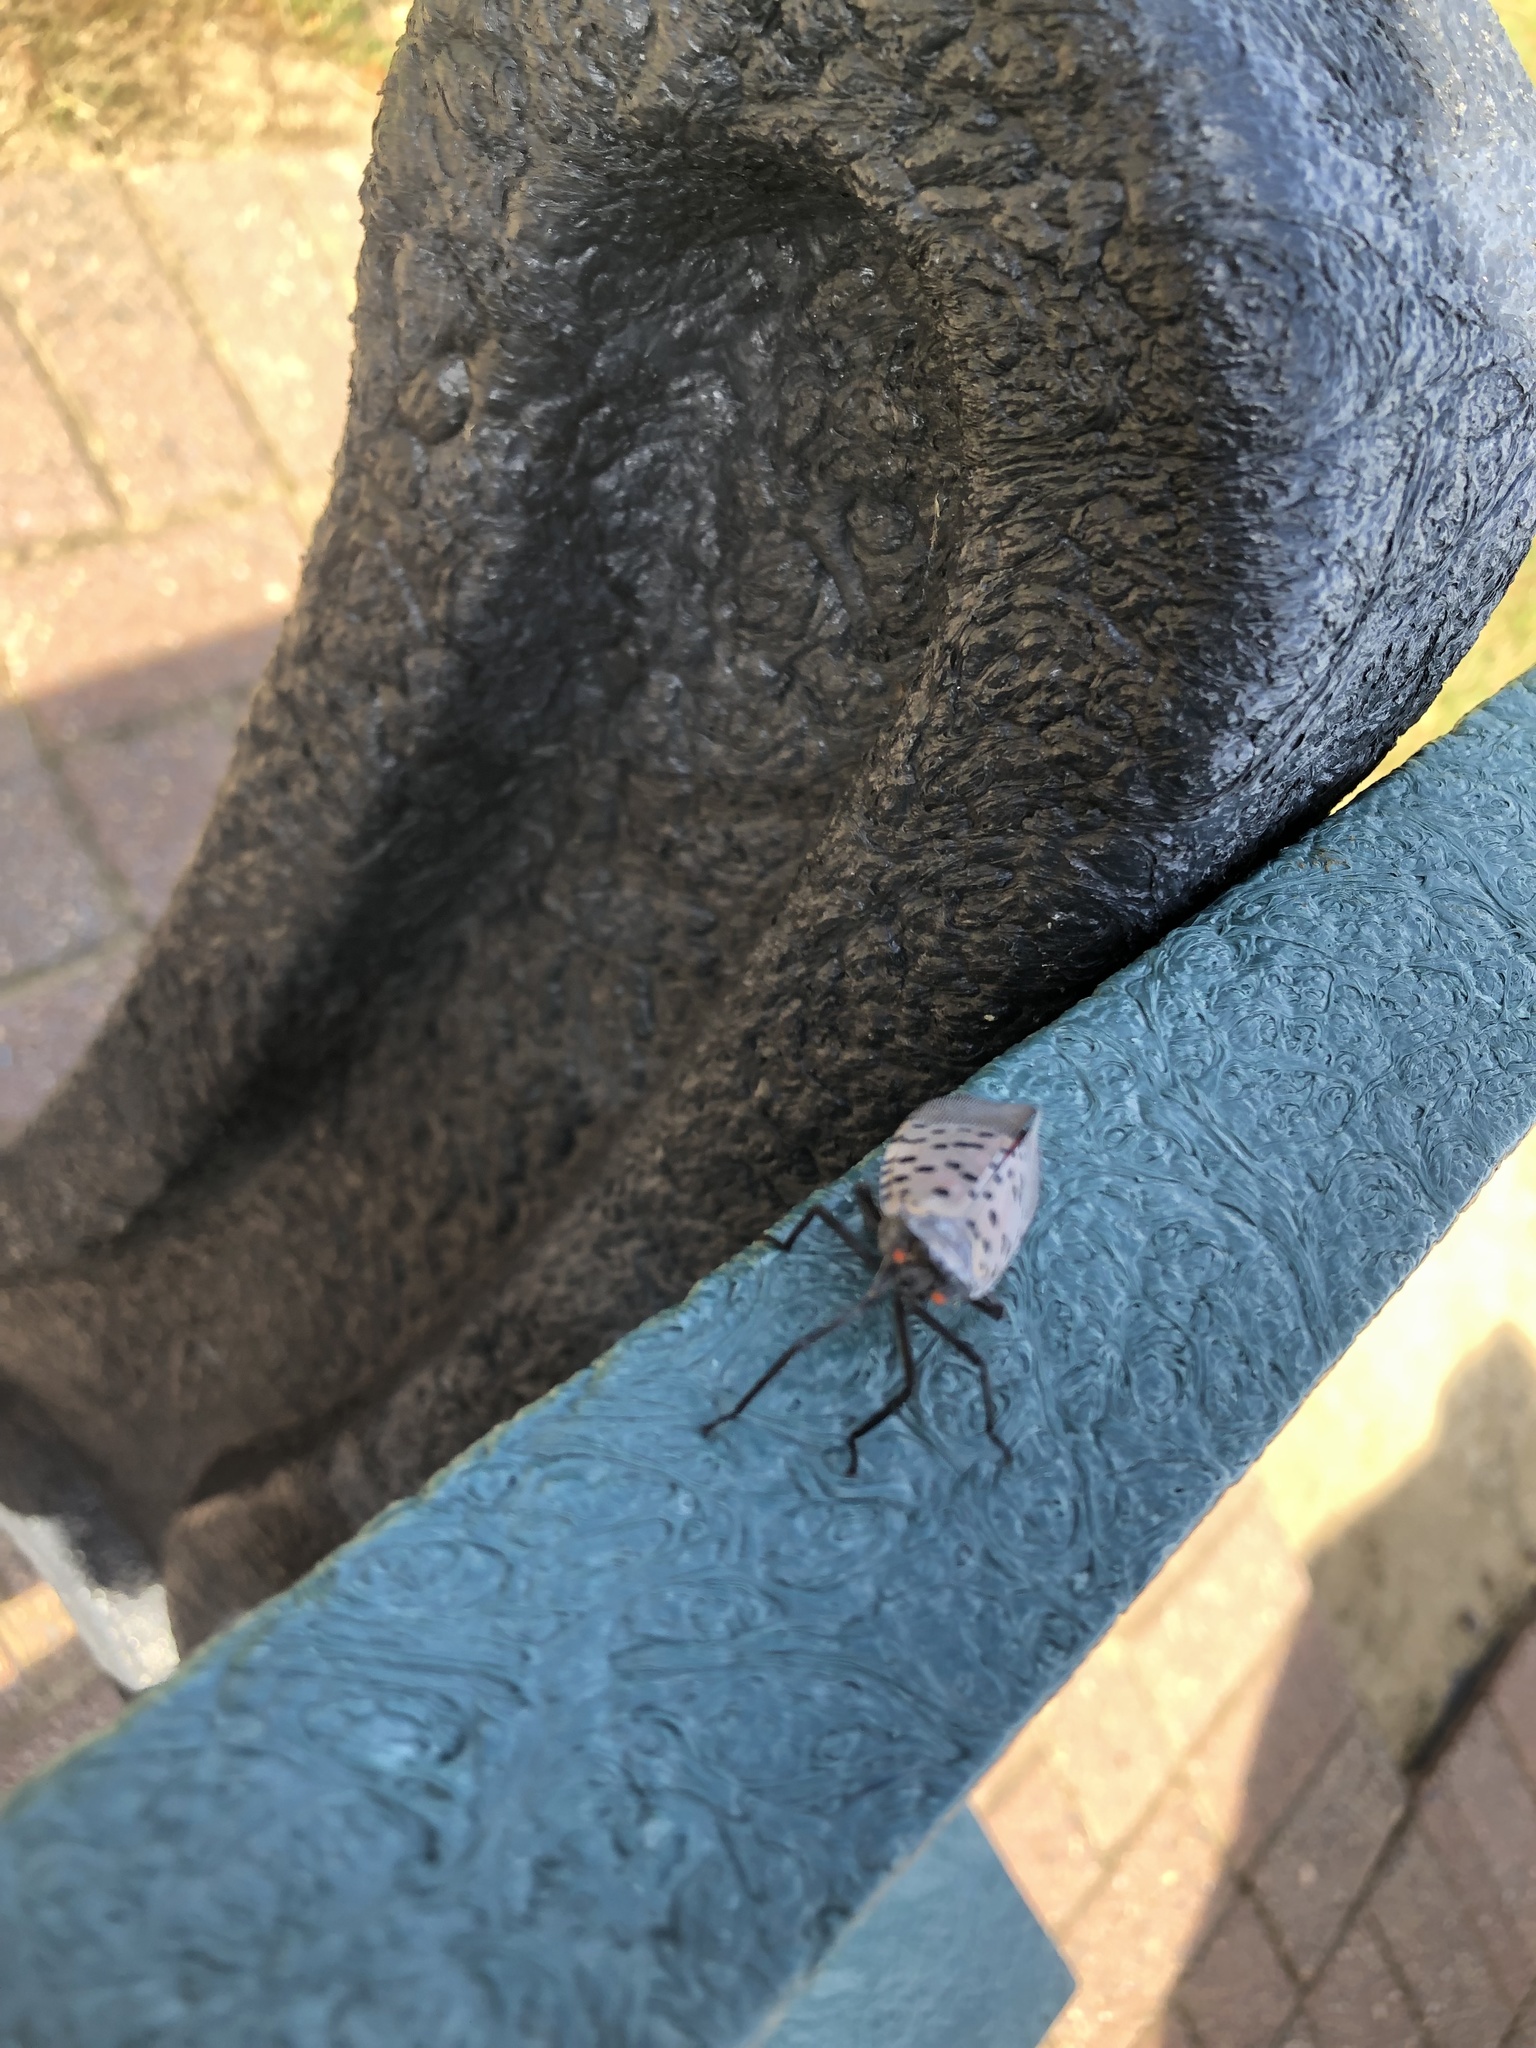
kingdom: Animalia
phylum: Arthropoda
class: Insecta
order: Hemiptera
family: Fulgoridae
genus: Lycorma
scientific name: Lycorma delicatula
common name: Spotted lanternfly
